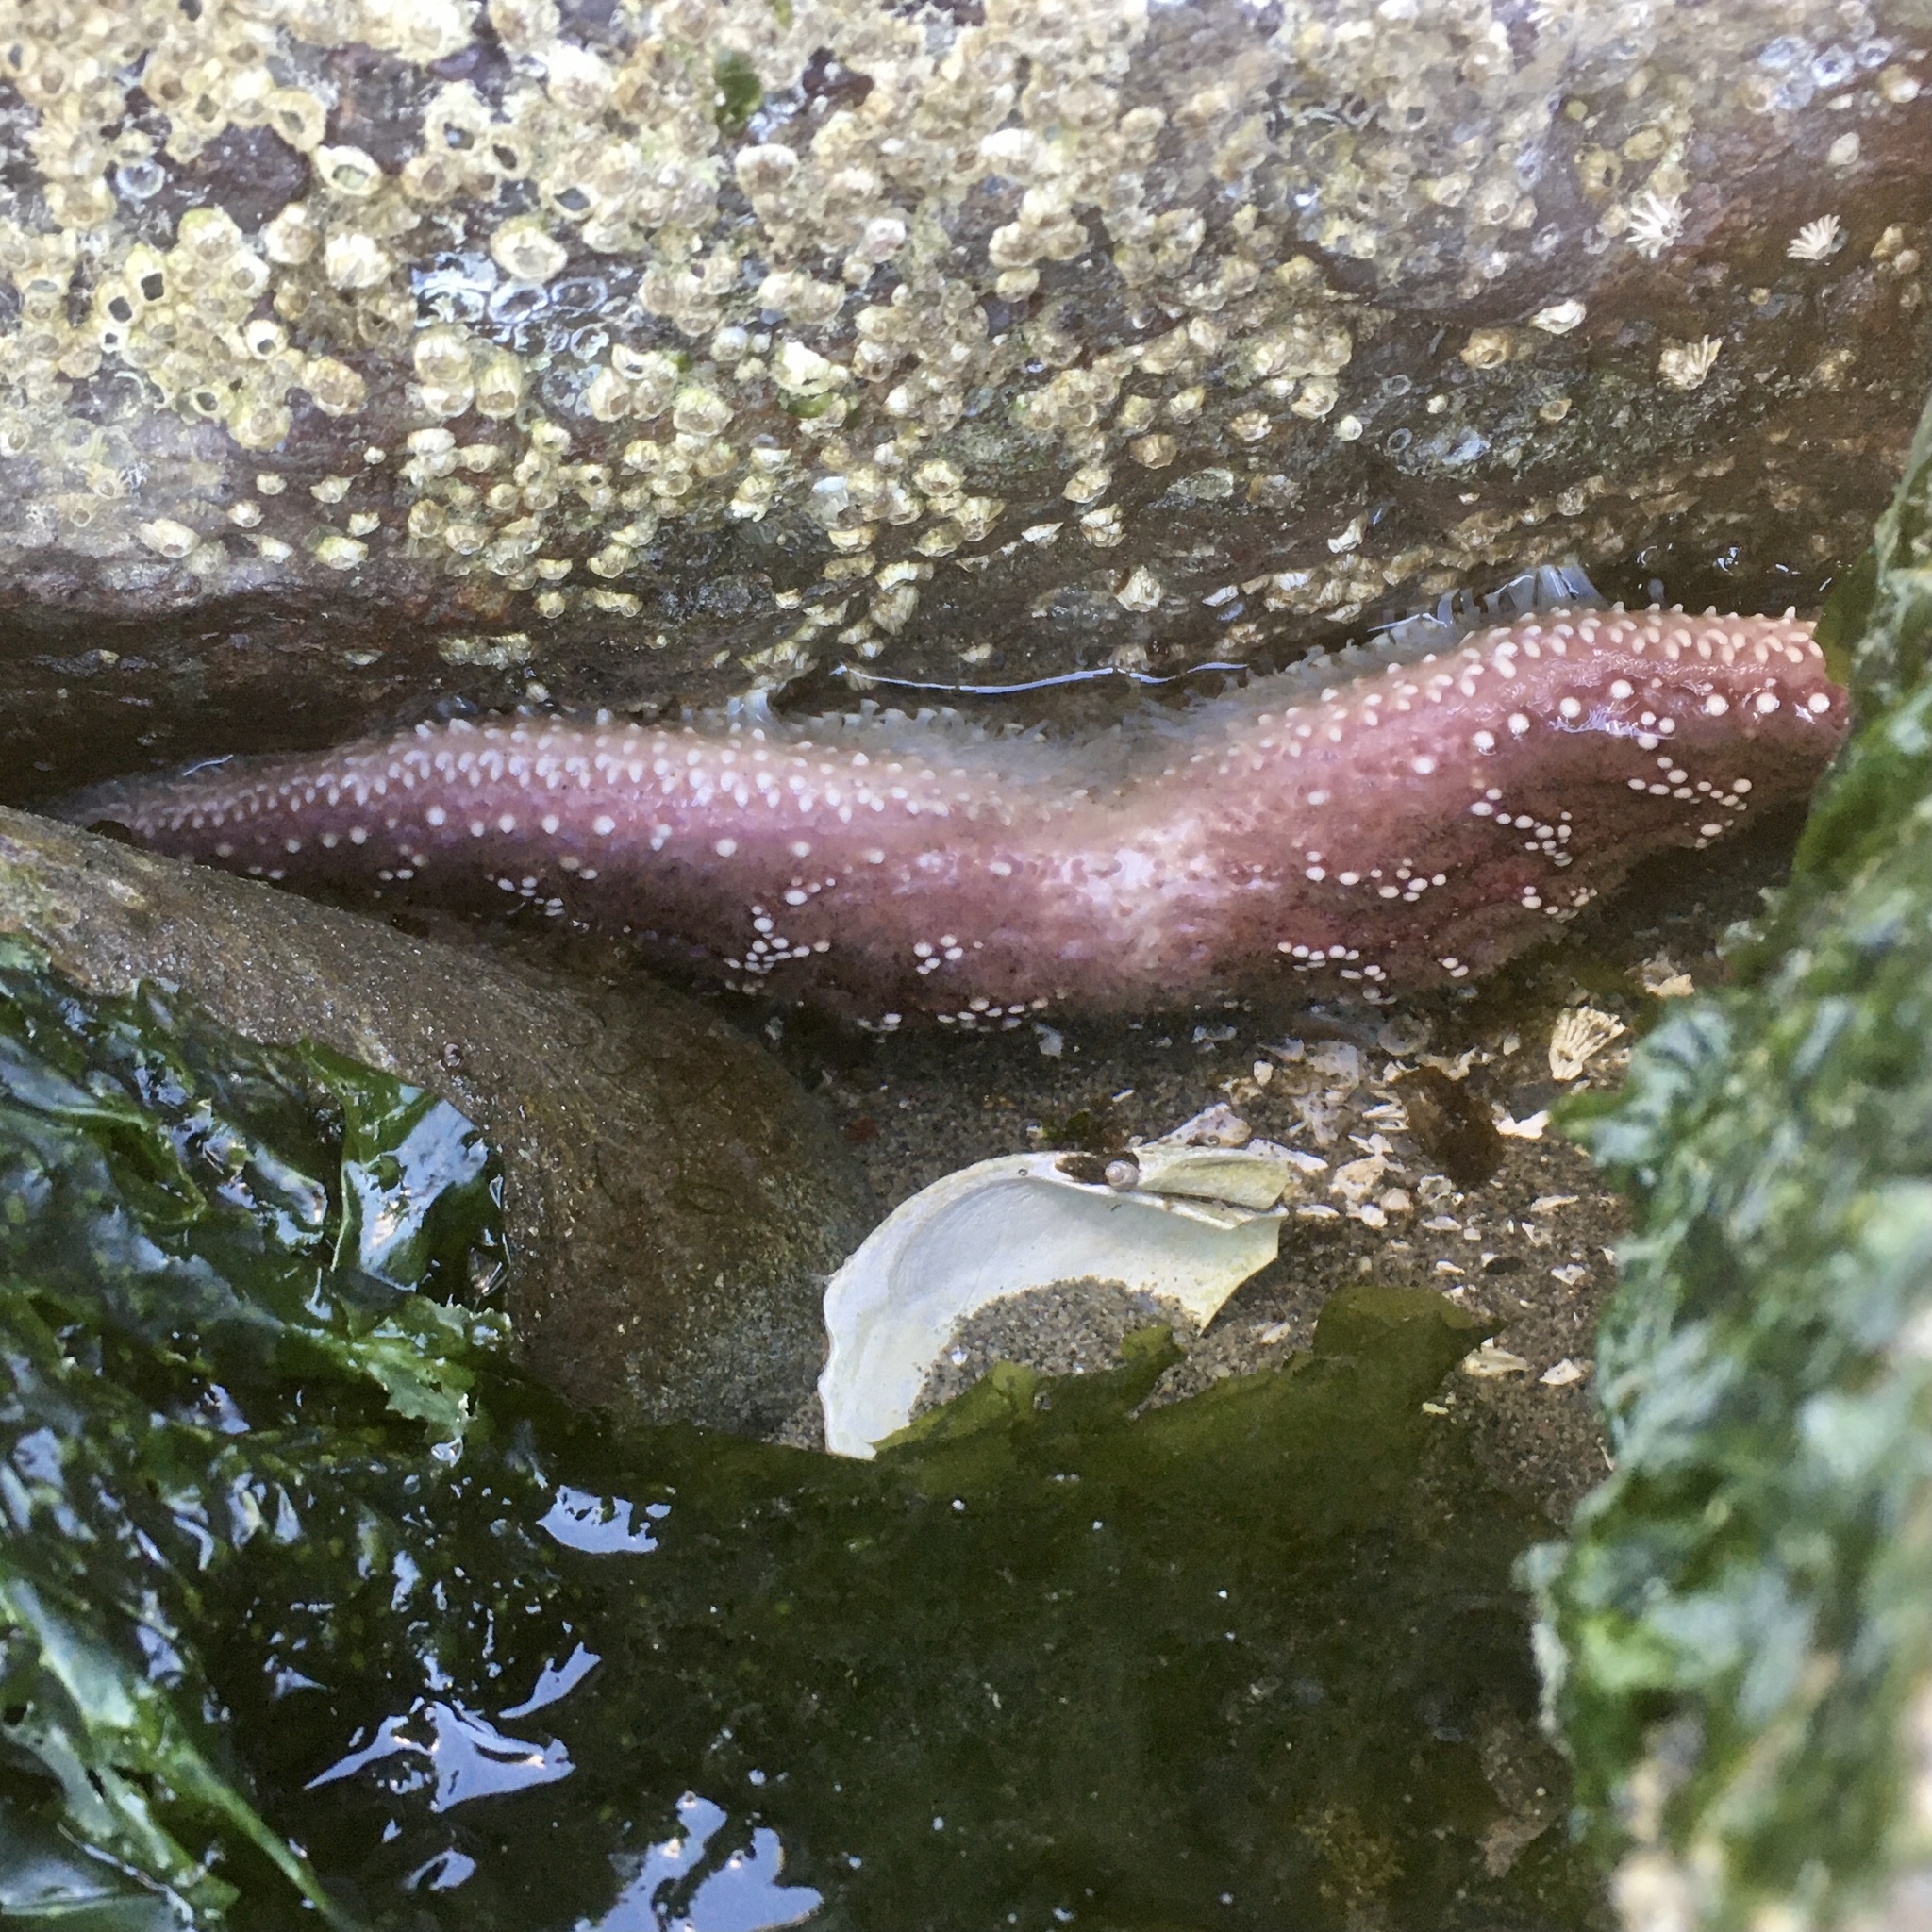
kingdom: Animalia
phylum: Echinodermata
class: Asteroidea
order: Forcipulatida
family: Asteriidae
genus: Pisaster
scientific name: Pisaster ochraceus
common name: Ochre stars
